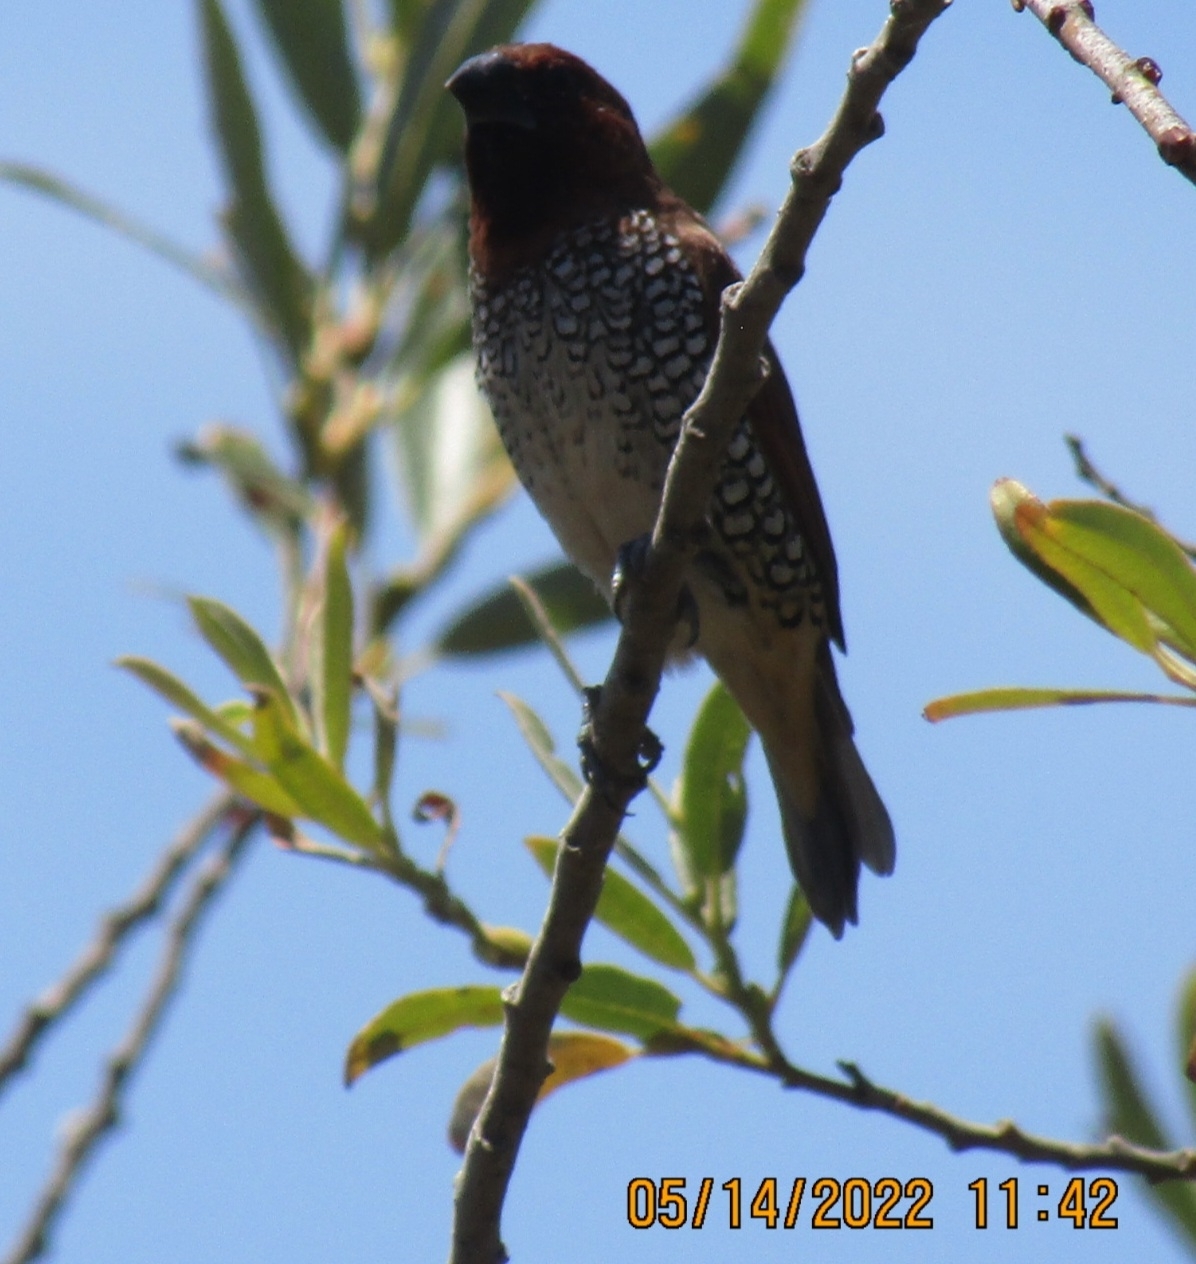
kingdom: Animalia
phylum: Chordata
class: Aves
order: Passeriformes
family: Estrildidae
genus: Lonchura
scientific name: Lonchura punctulata
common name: Scaly-breasted munia
